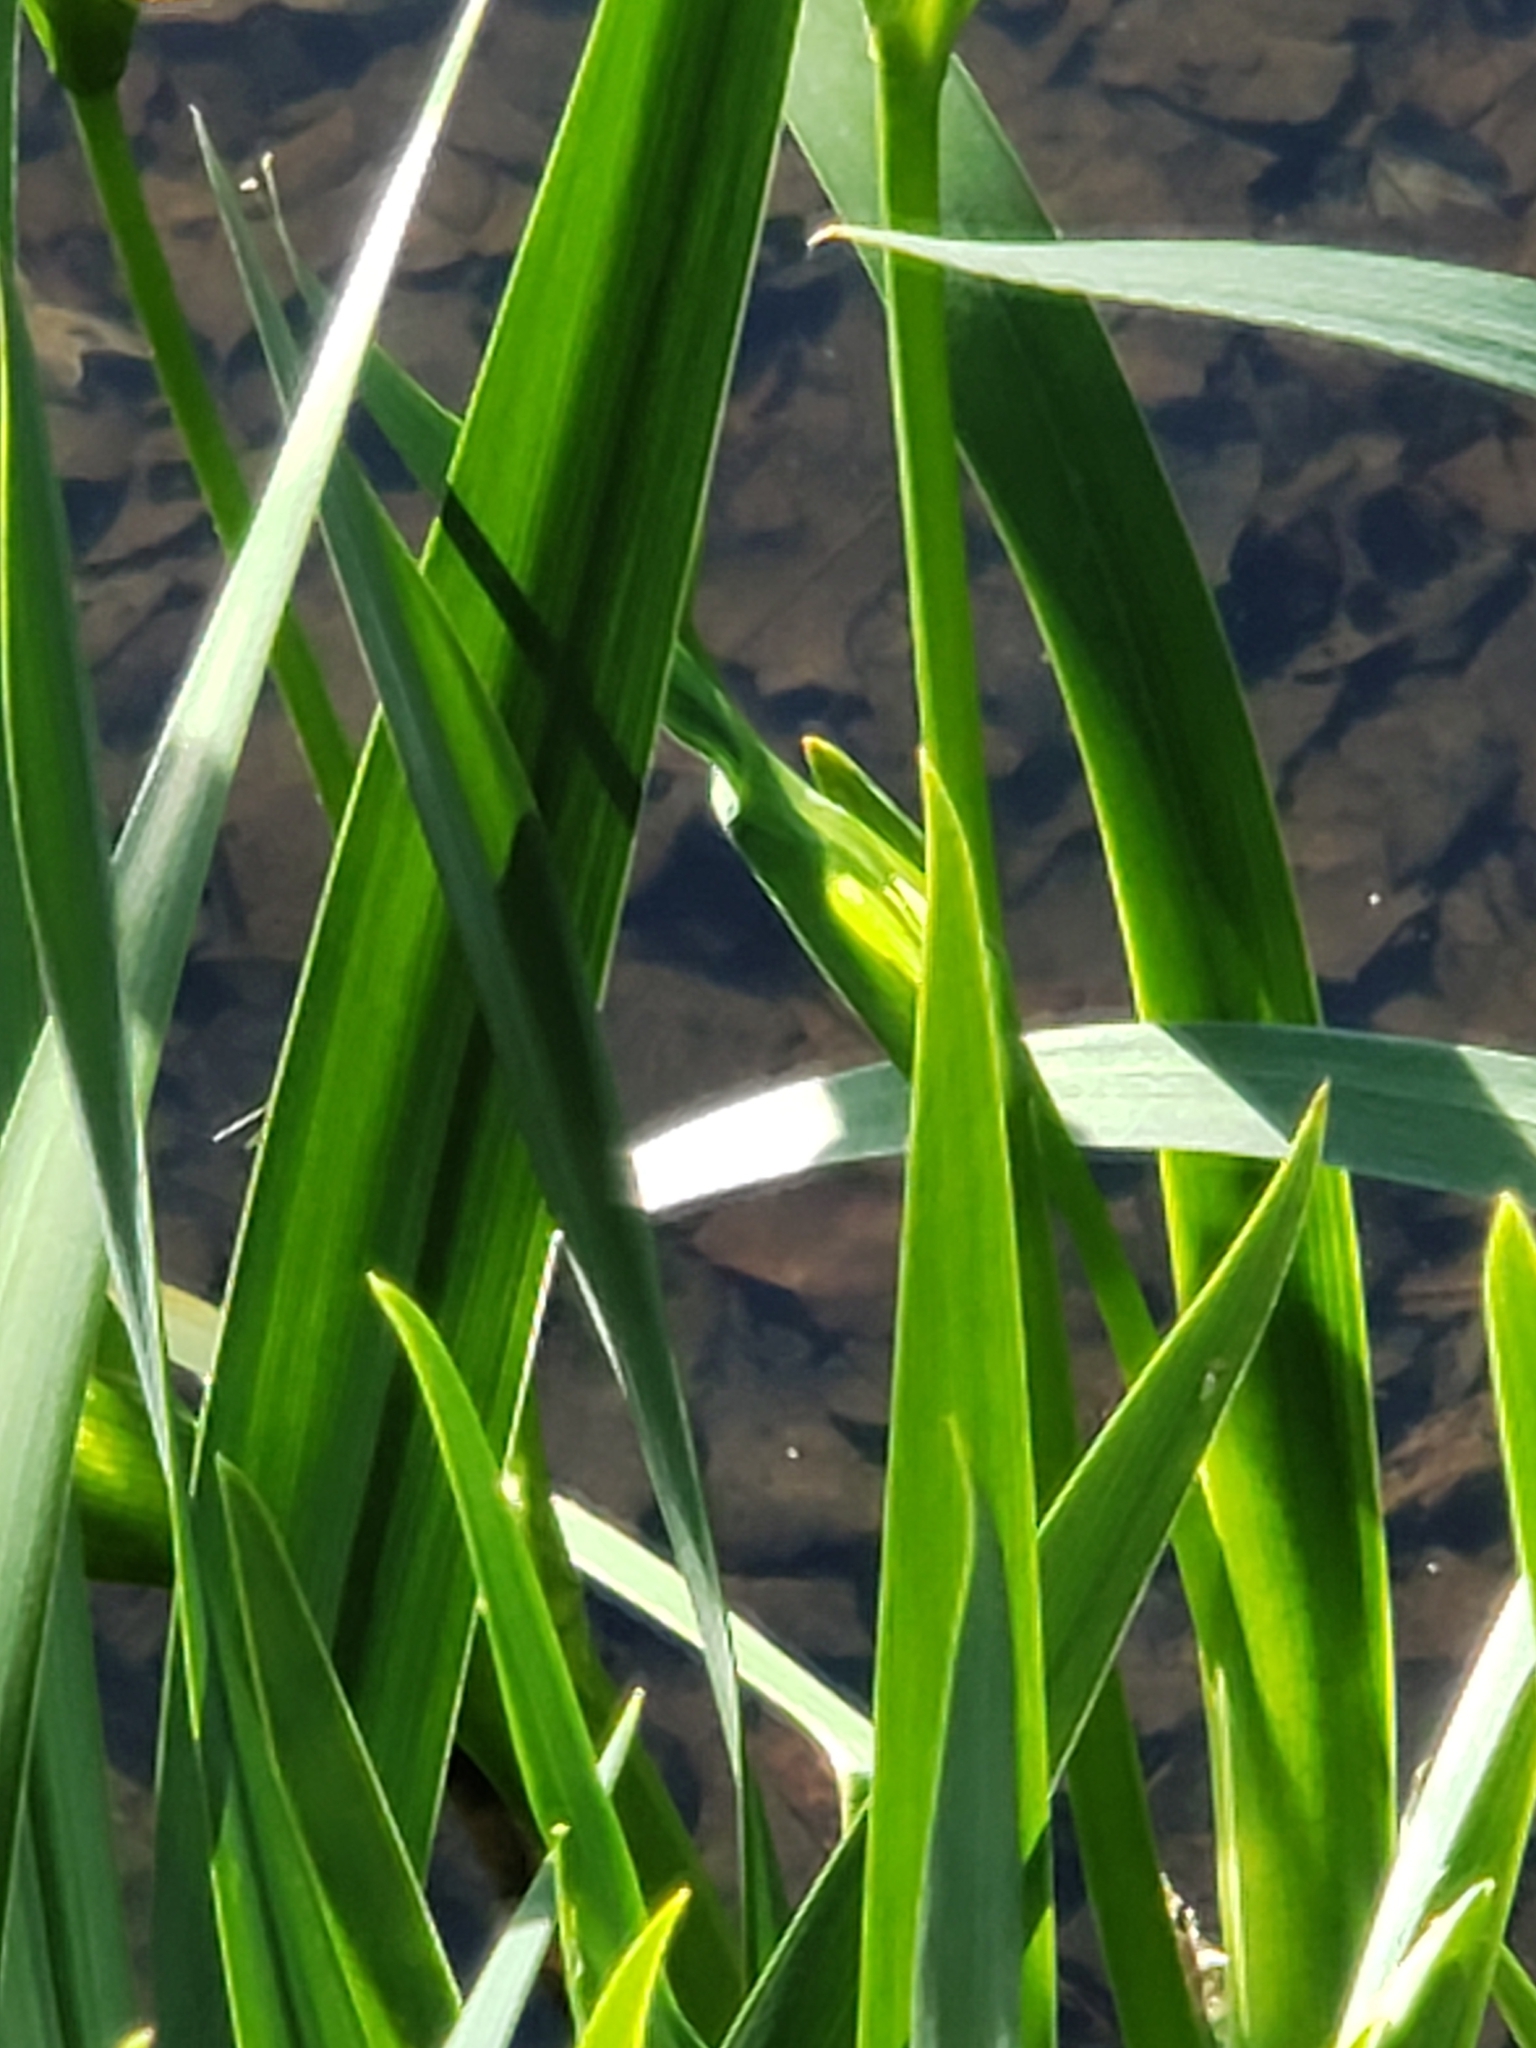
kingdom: Plantae
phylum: Tracheophyta
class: Liliopsida
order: Asparagales
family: Iridaceae
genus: Iris
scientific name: Iris pseudacorus
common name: Yellow flag
